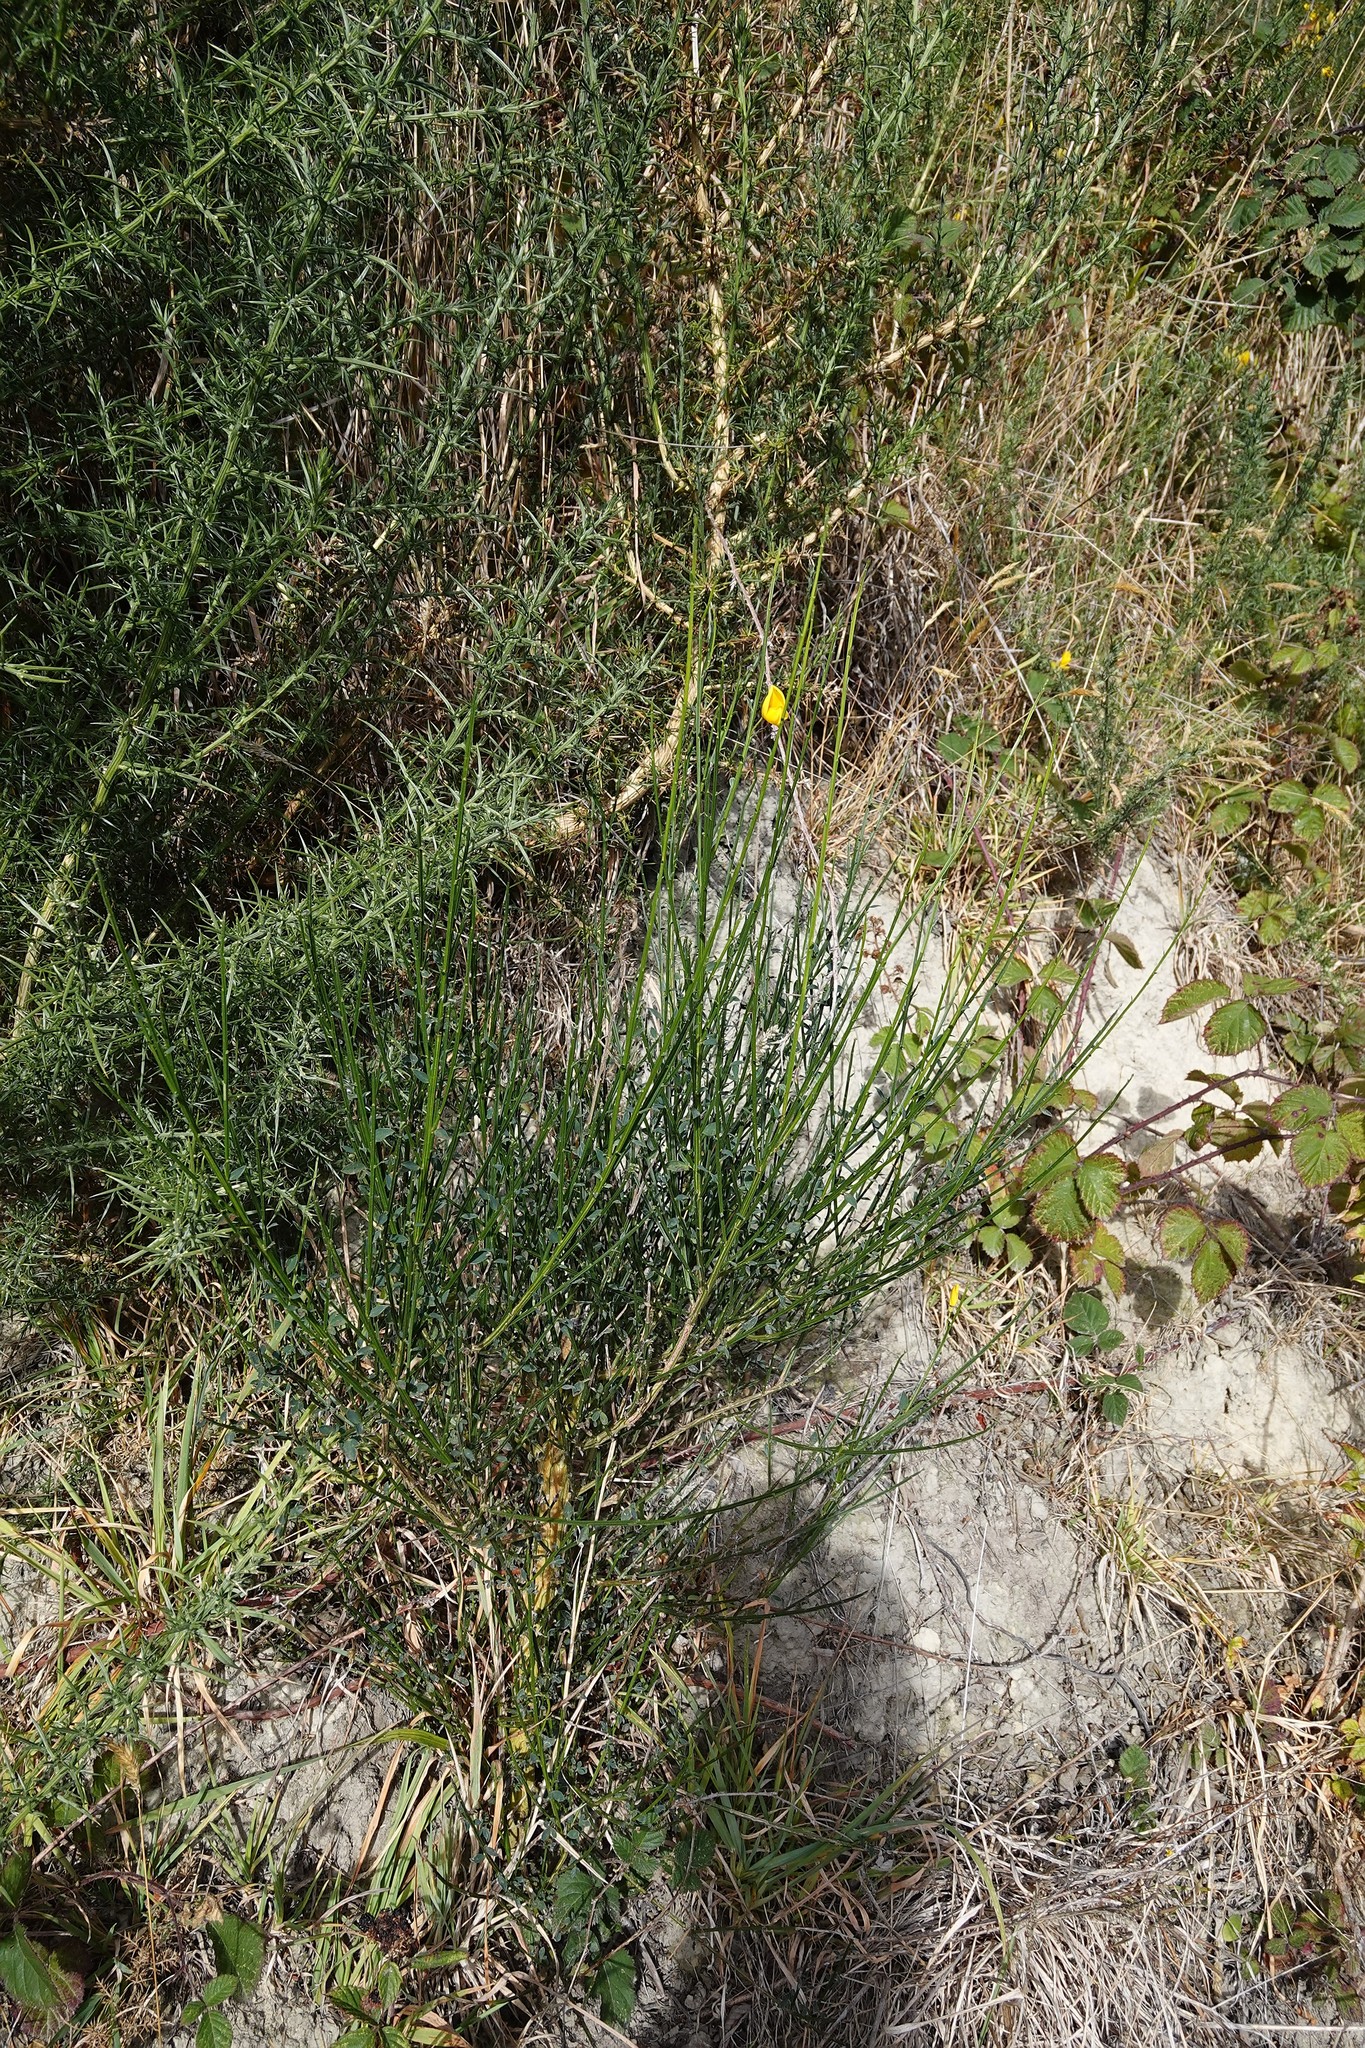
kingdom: Plantae
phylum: Tracheophyta
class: Magnoliopsida
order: Fabales
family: Fabaceae
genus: Cytisus
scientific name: Cytisus scoparius
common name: Scotch broom
